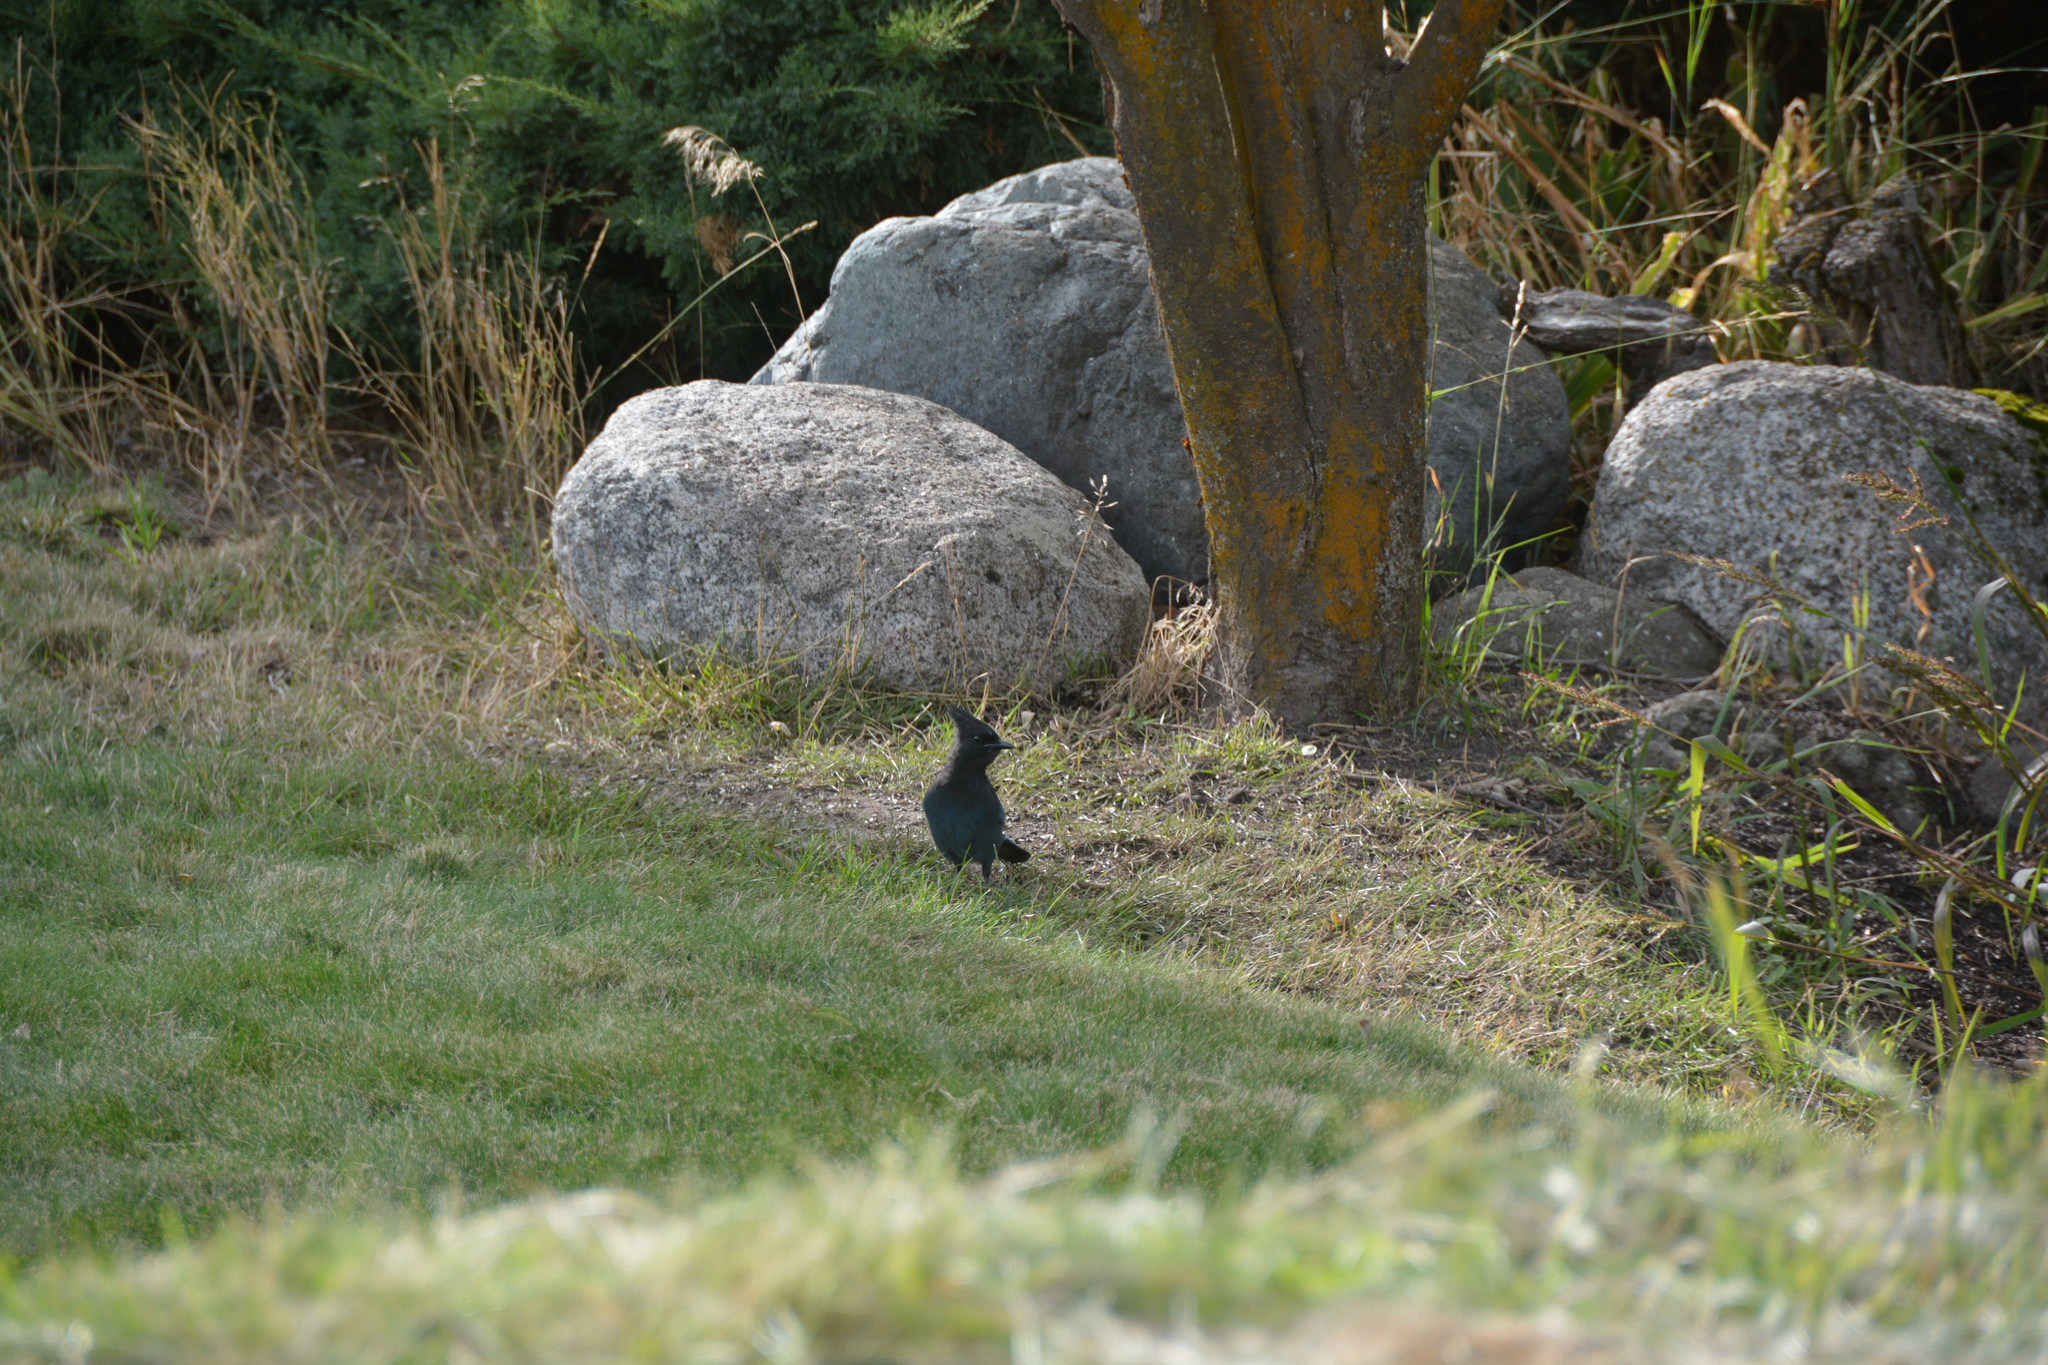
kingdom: Animalia
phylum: Chordata
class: Aves
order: Passeriformes
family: Corvidae
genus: Cyanocitta
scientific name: Cyanocitta stelleri
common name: Steller's jay
